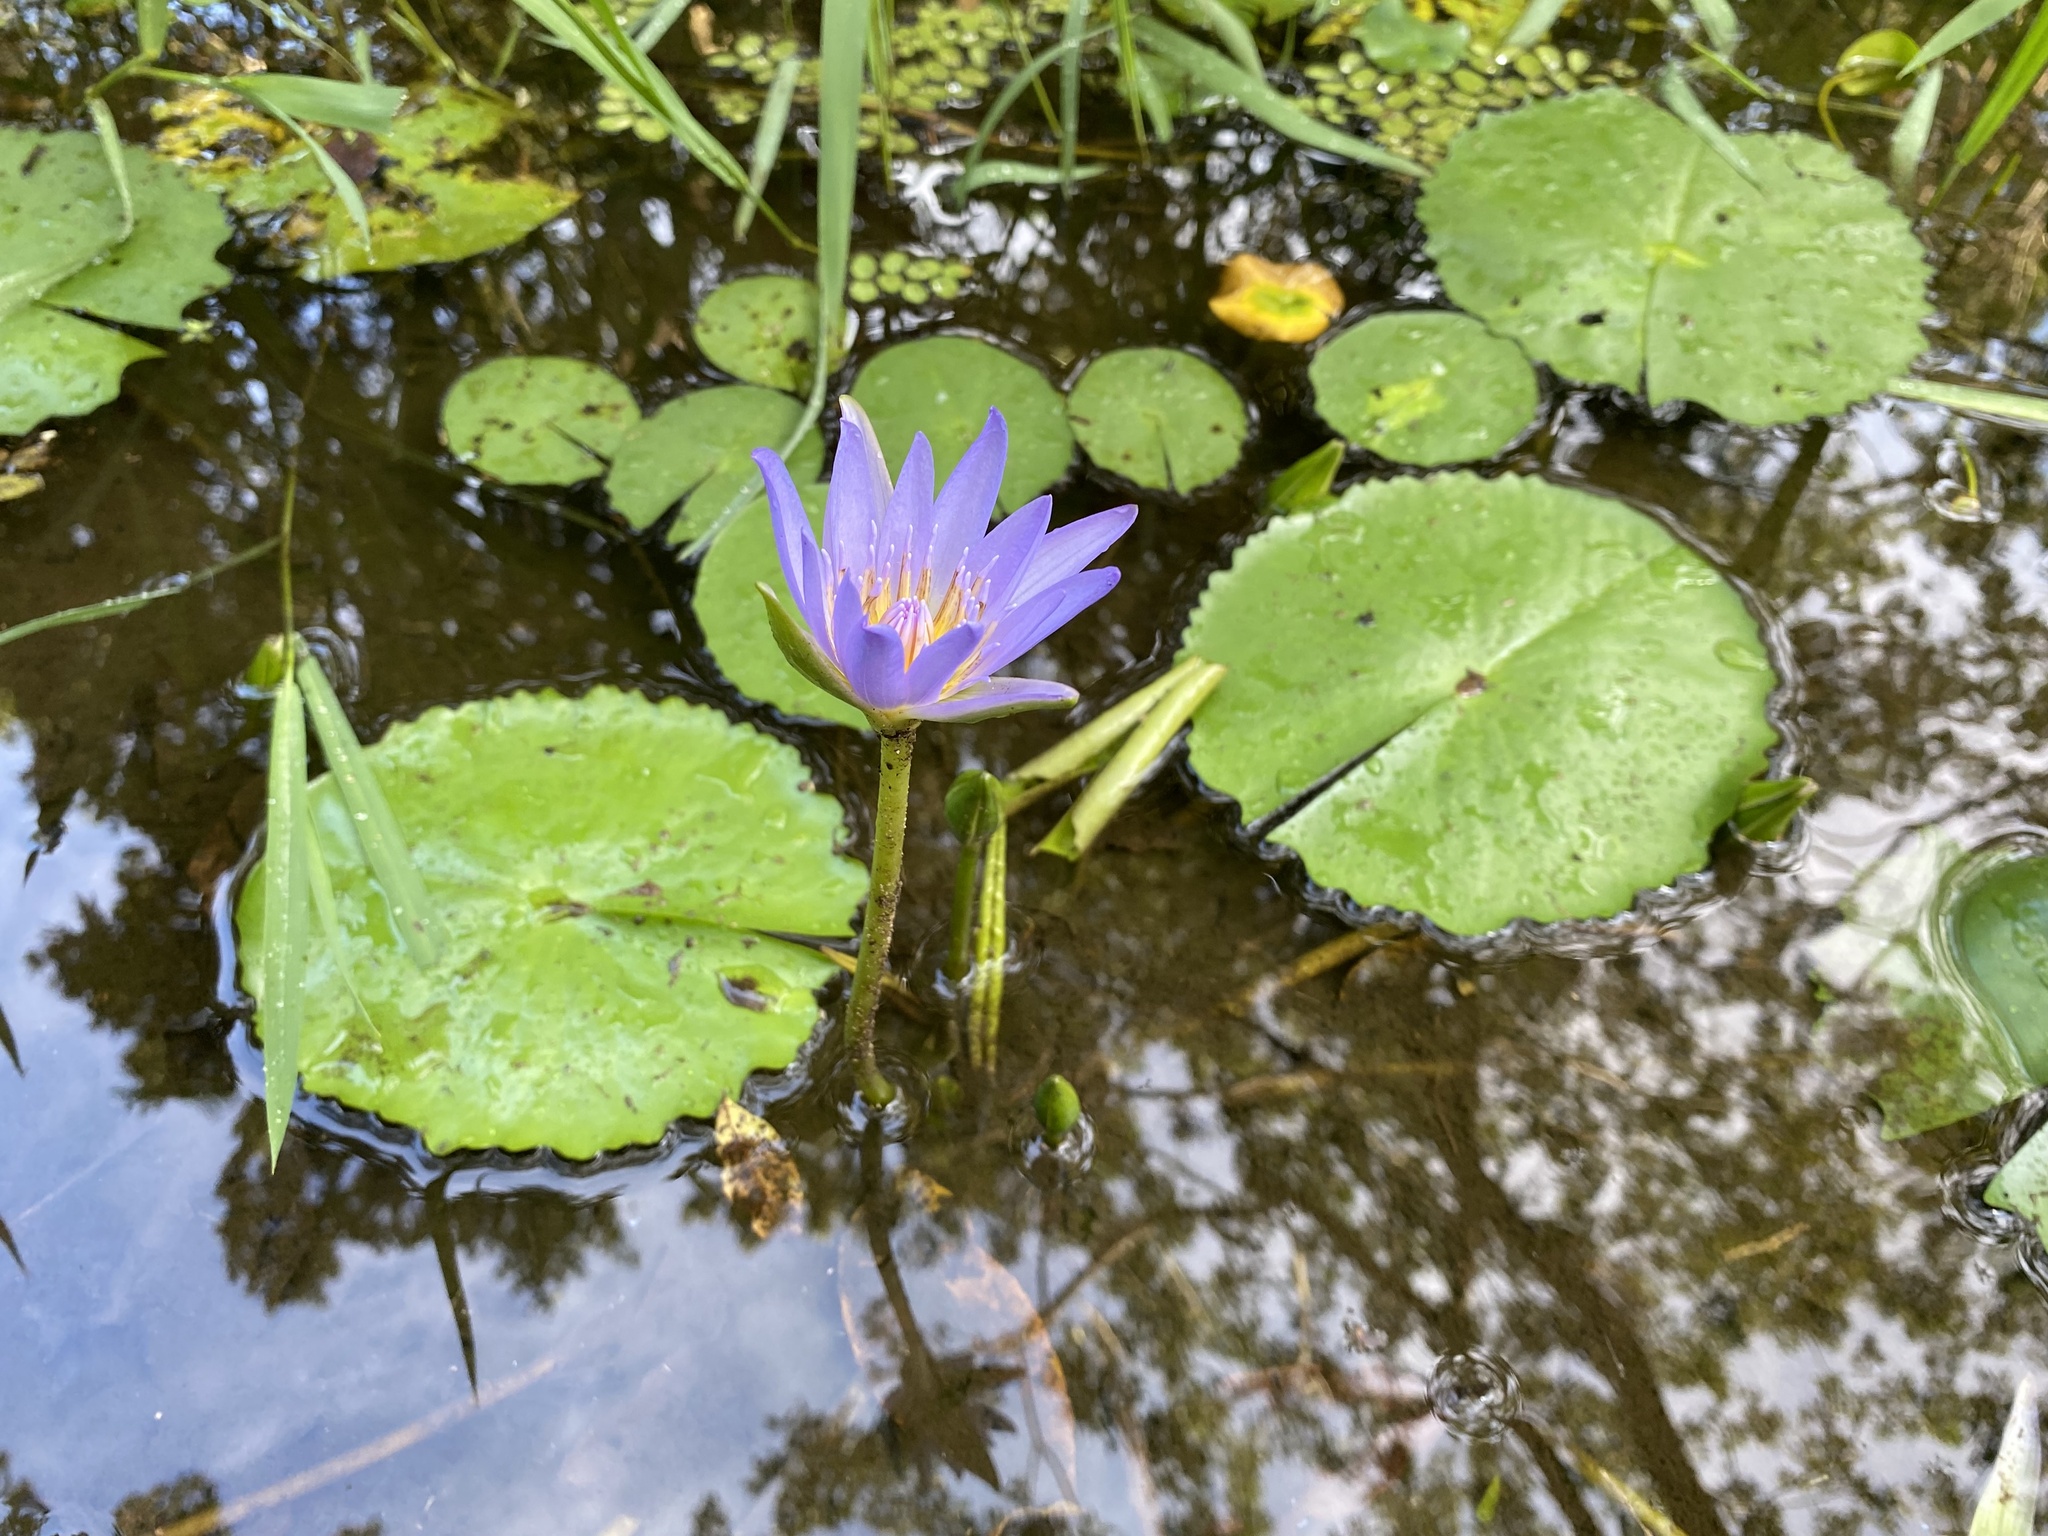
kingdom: Plantae
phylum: Tracheophyta
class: Magnoliopsida
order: Nymphaeales
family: Nymphaeaceae
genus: Nymphaea
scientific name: Nymphaea nouchali
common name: Blue lotus
